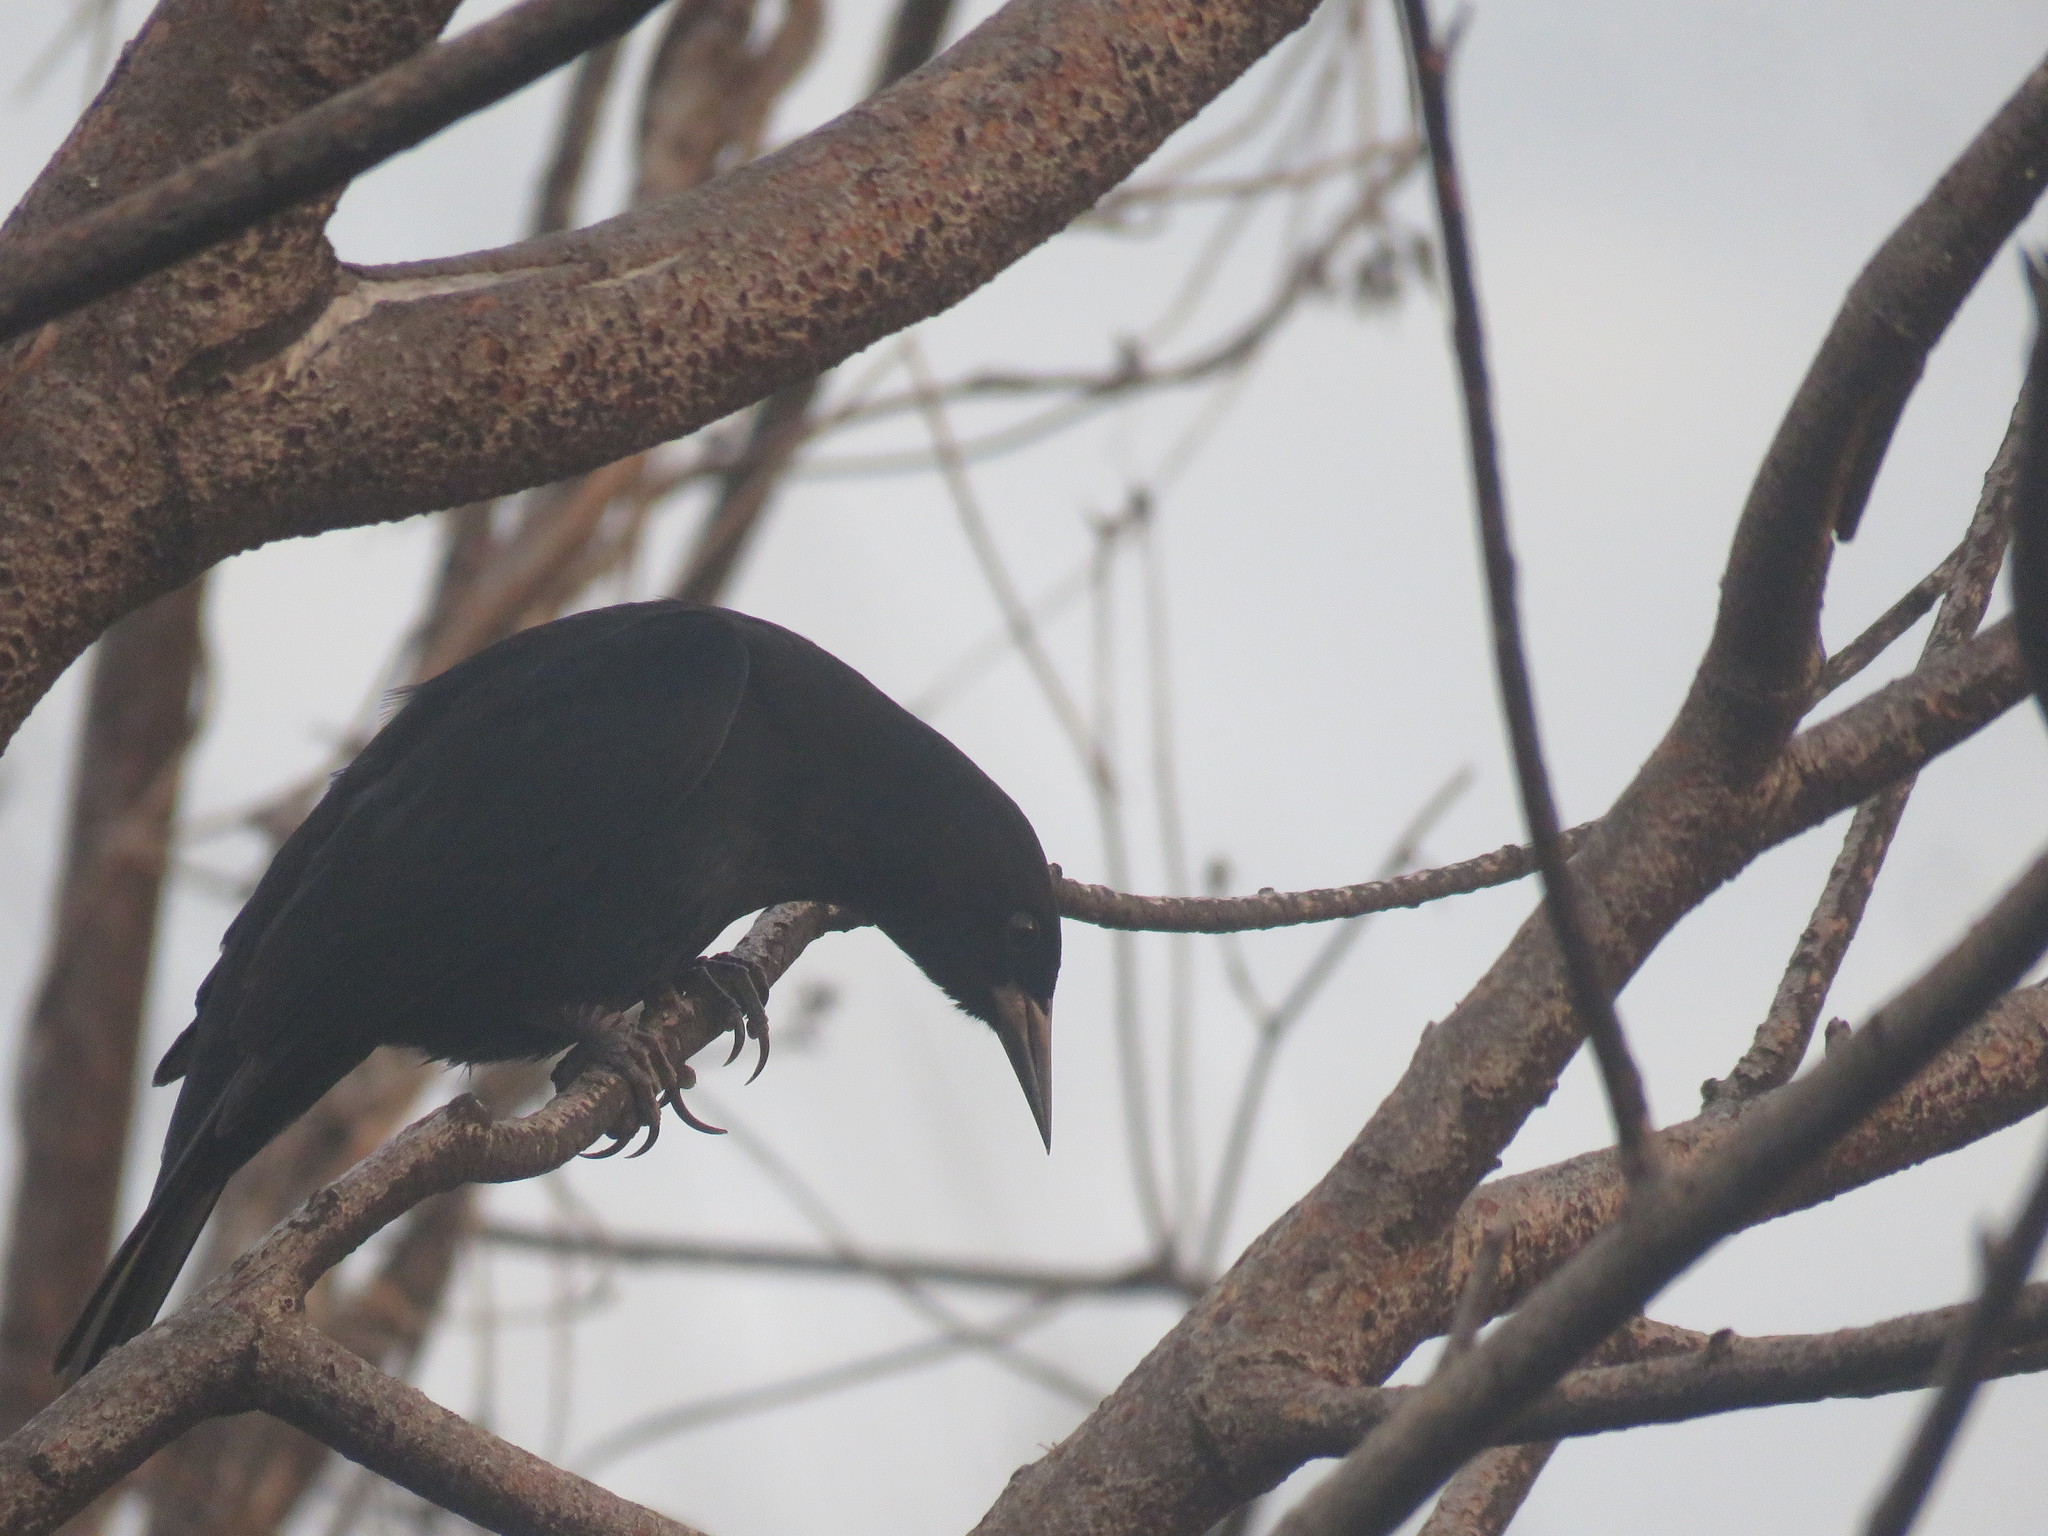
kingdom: Animalia
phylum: Chordata
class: Aves
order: Passeriformes
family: Icteridae
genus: Cacicus
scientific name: Cacicus solitarius
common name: Solitary cacique
